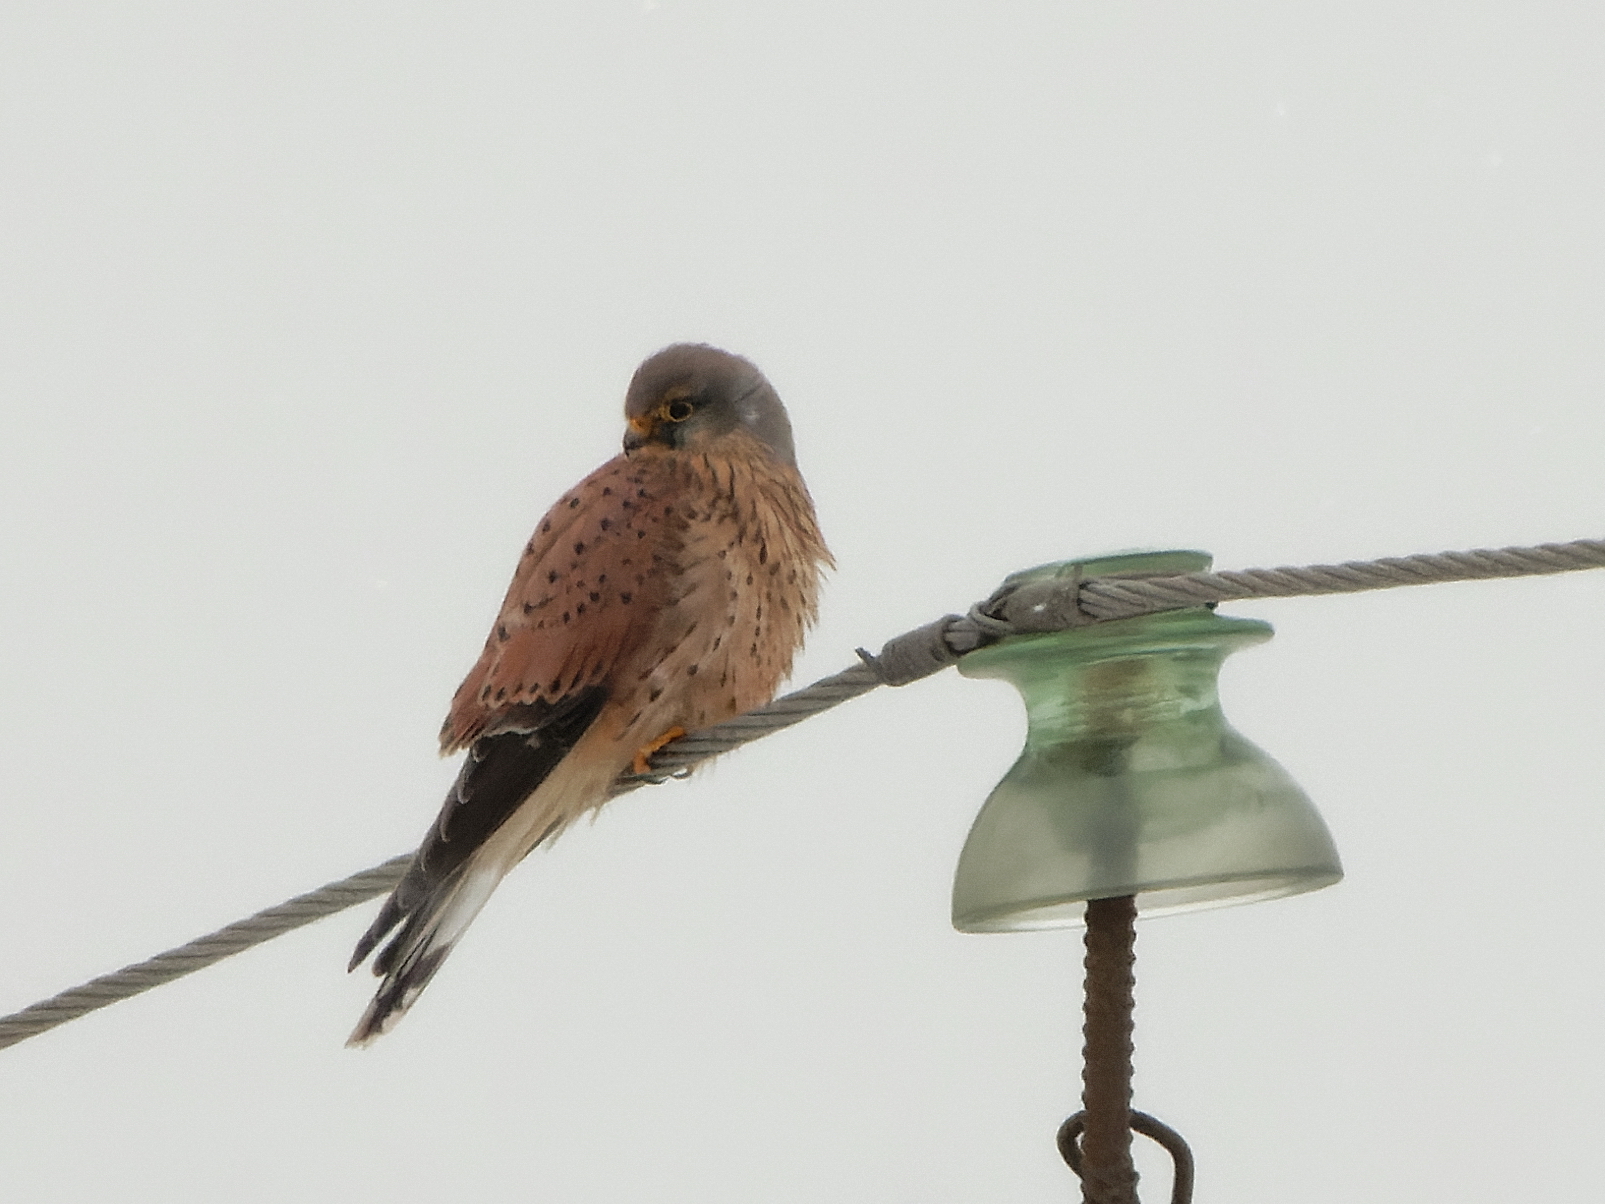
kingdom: Animalia
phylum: Chordata
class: Aves
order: Falconiformes
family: Falconidae
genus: Falco
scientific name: Falco tinnunculus
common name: Common kestrel
